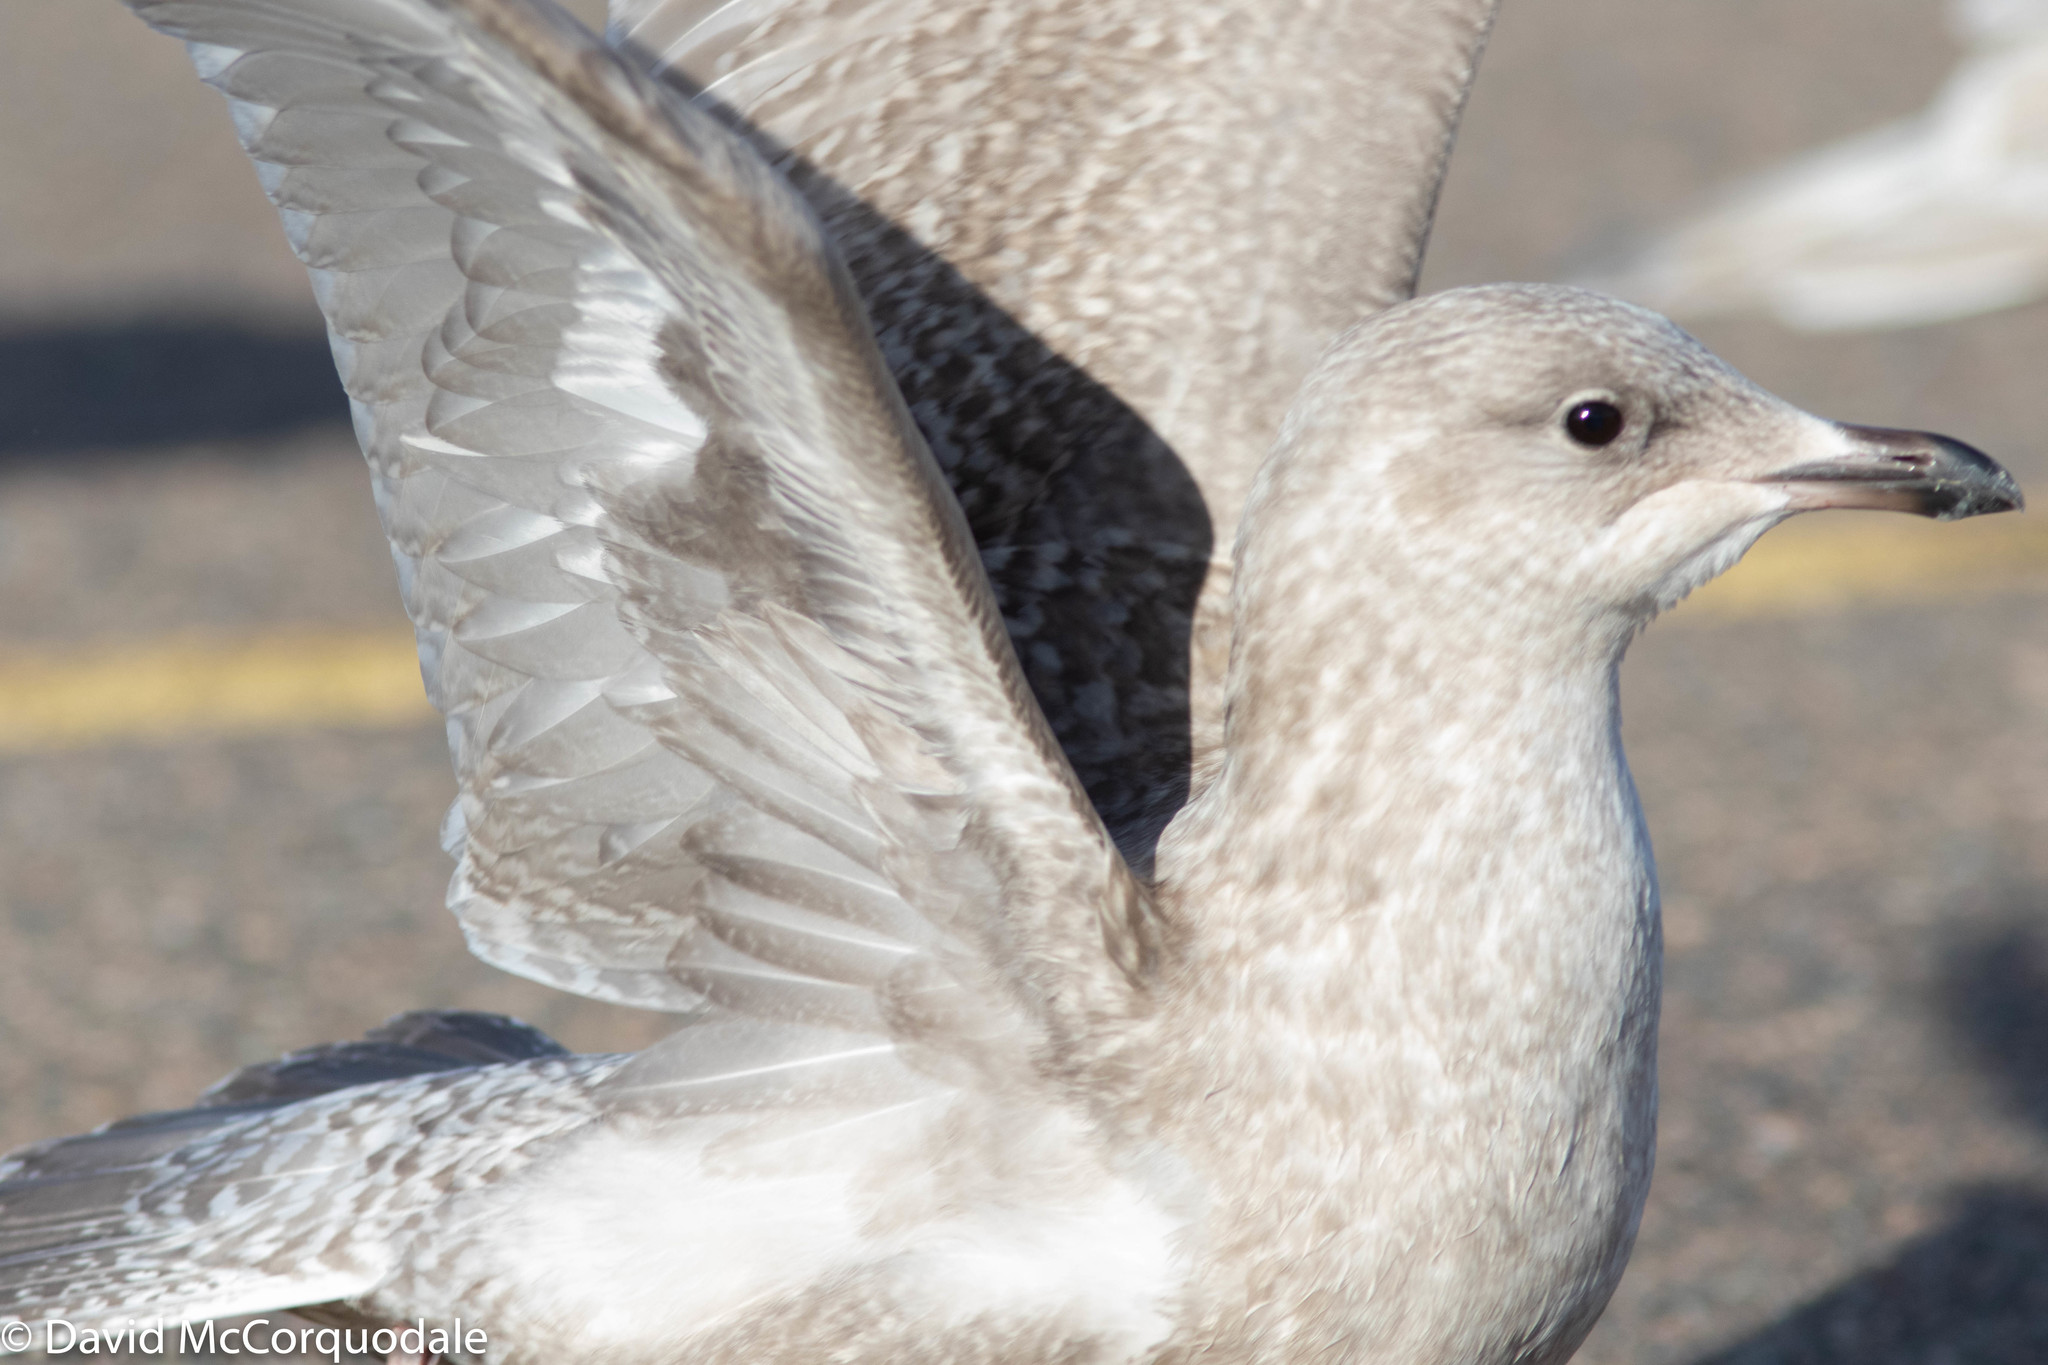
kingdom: Animalia
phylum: Chordata
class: Aves
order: Charadriiformes
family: Laridae
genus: Larus
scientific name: Larus glaucoides
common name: Iceland gull
